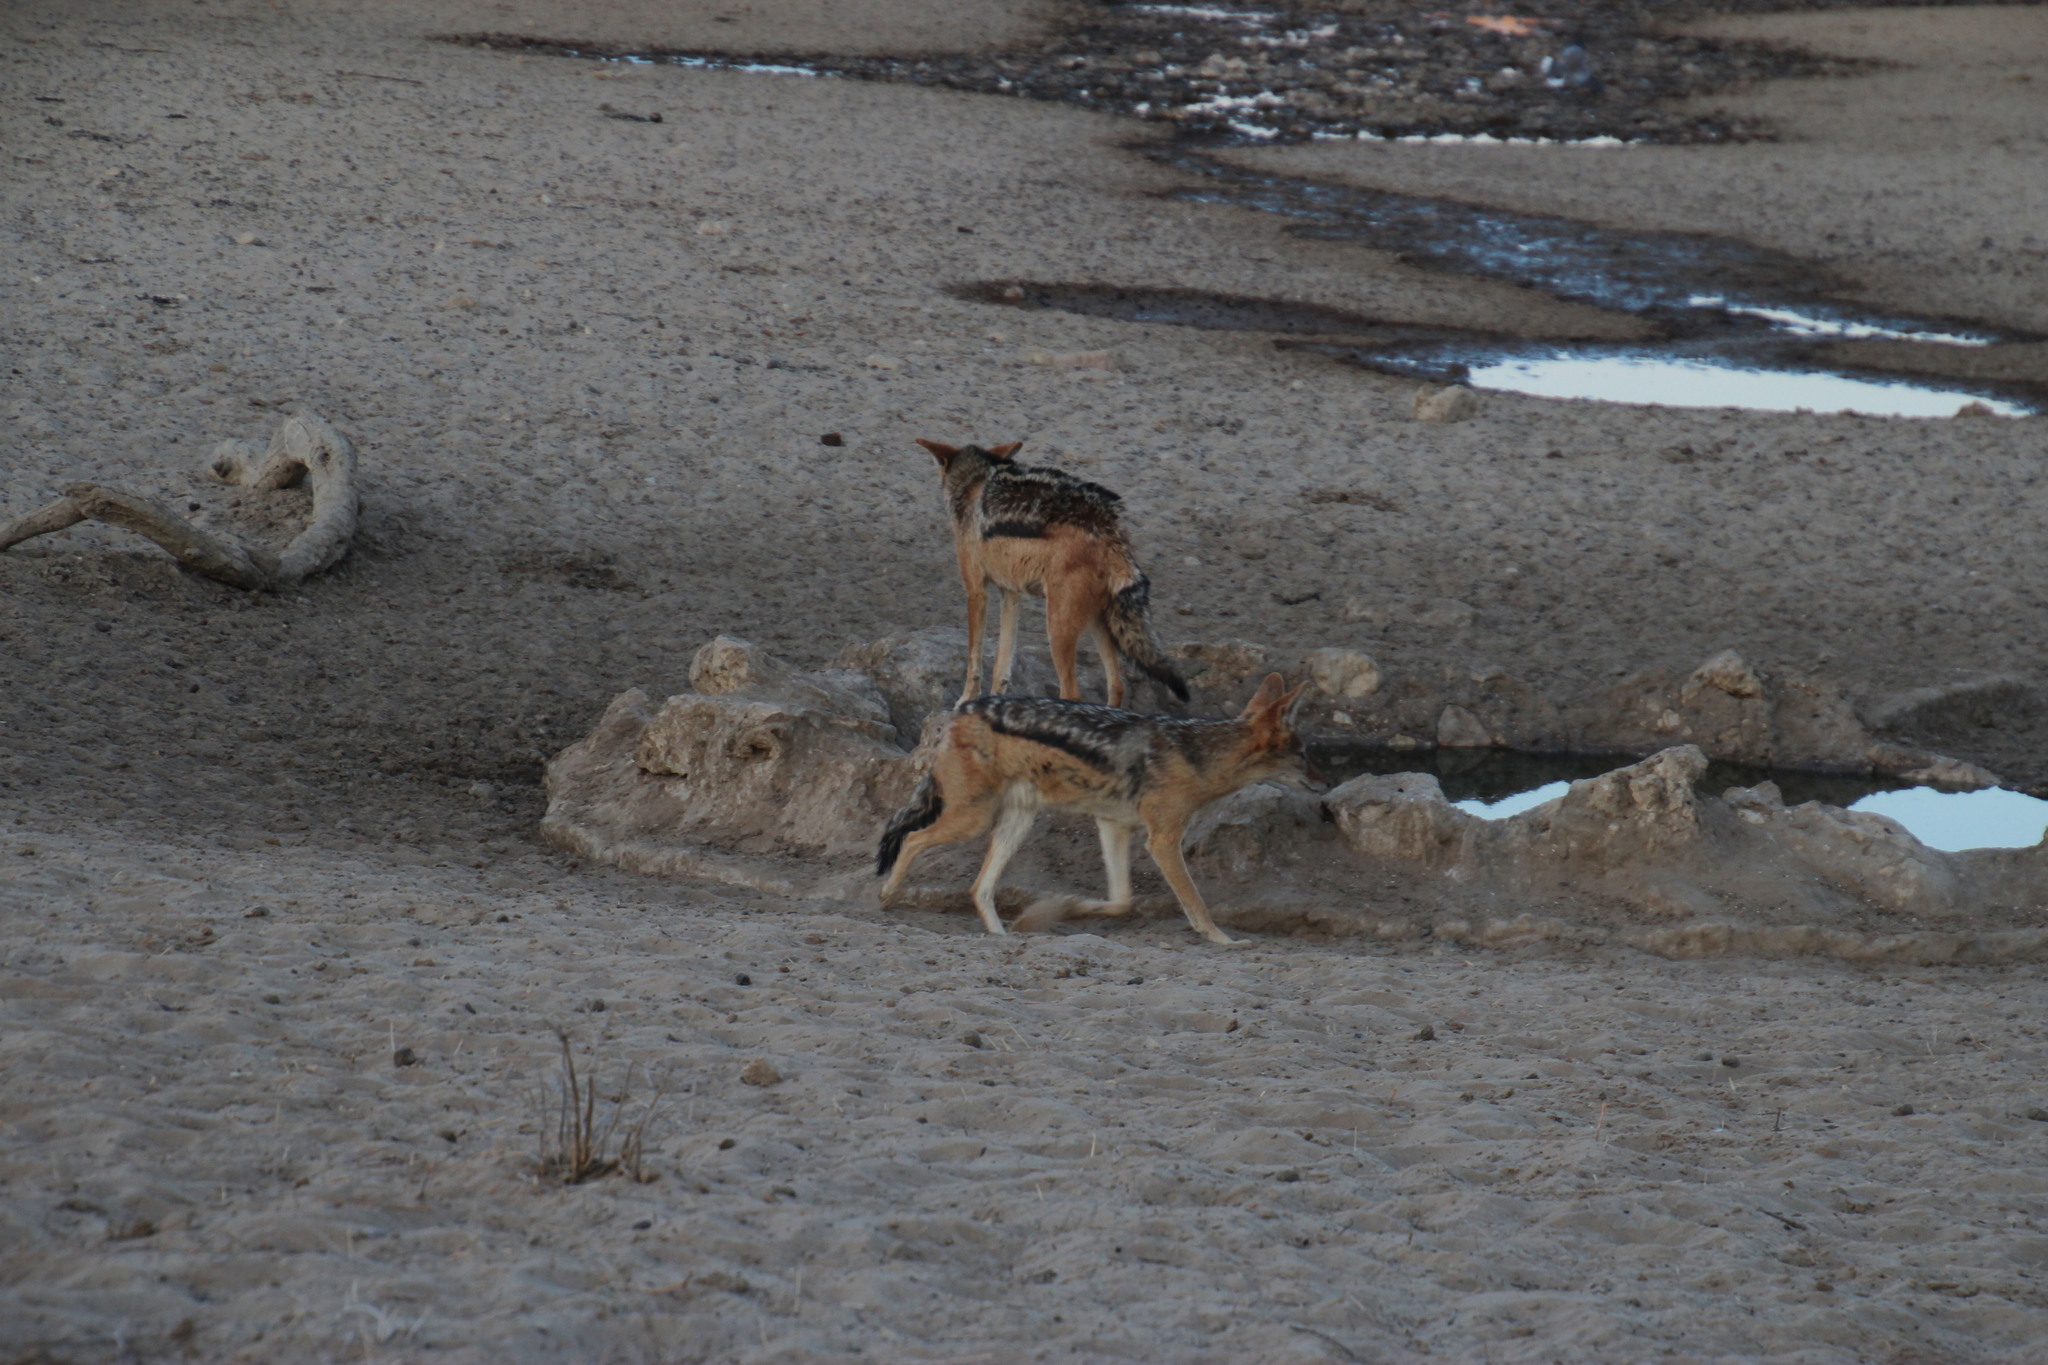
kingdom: Animalia
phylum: Chordata
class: Mammalia
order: Carnivora
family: Canidae
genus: Lupulella
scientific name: Lupulella
